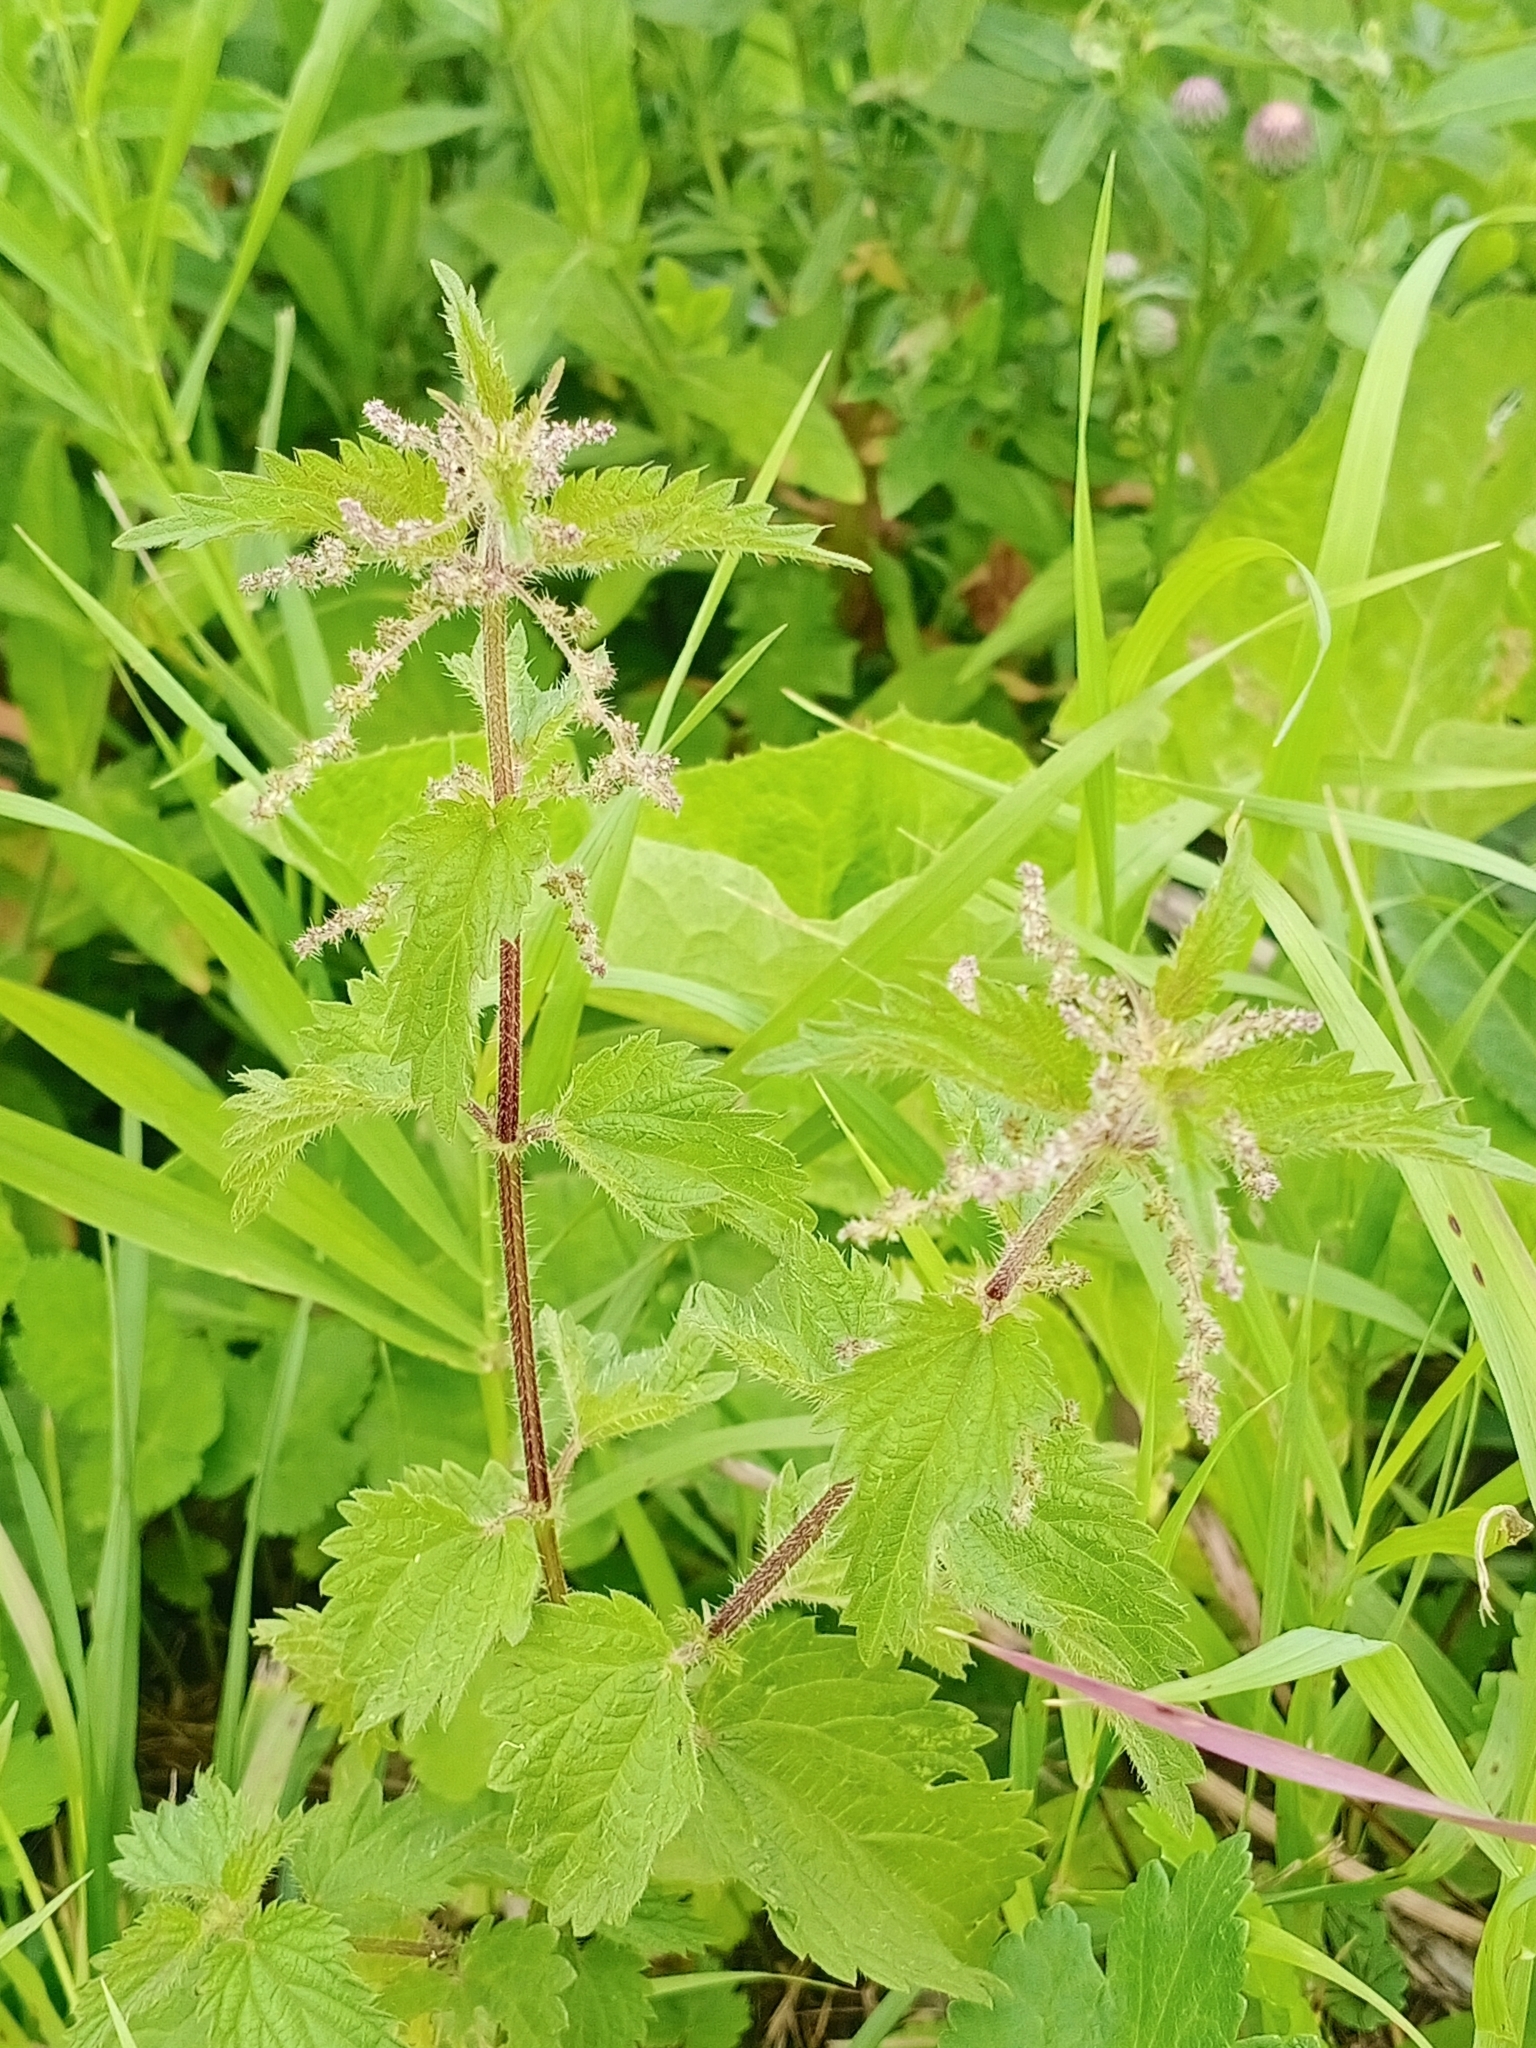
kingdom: Plantae
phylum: Tracheophyta
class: Magnoliopsida
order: Rosales
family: Urticaceae
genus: Urtica
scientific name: Urtica dioica
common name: Common nettle
